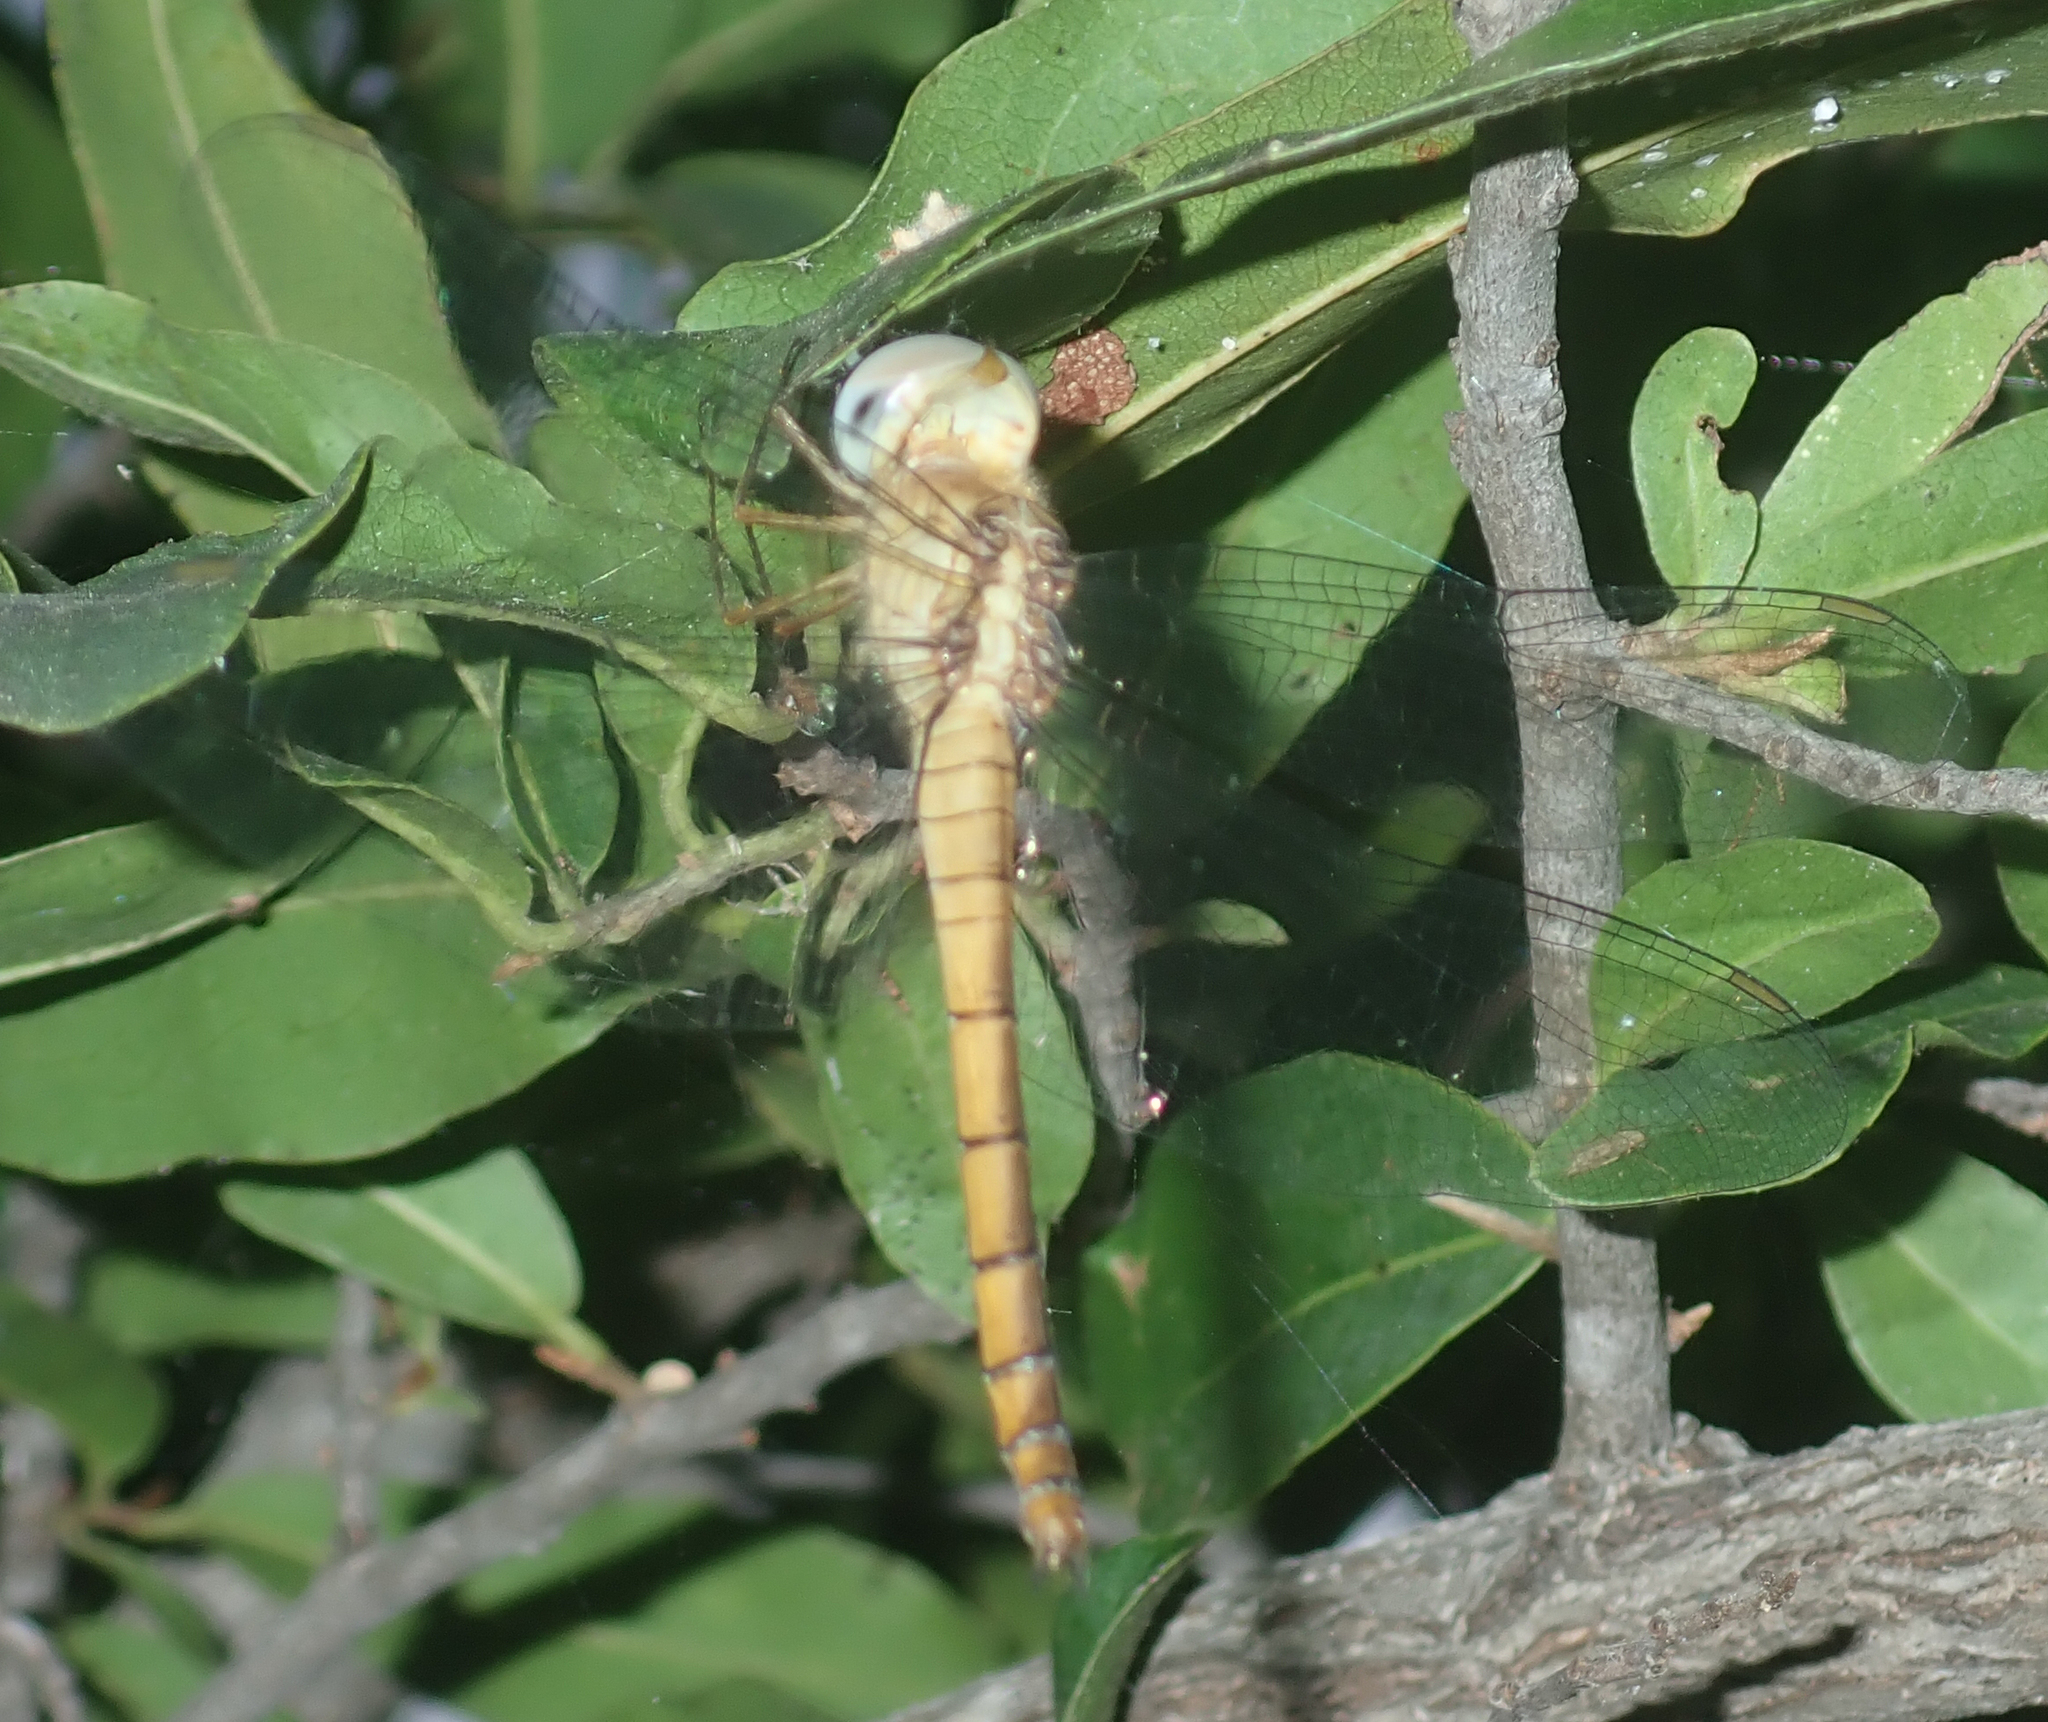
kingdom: Animalia
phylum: Arthropoda
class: Insecta
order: Odonata
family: Libellulidae
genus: Tholymis
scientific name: Tholymis tillarga
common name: Coral-tailed cloud wing
